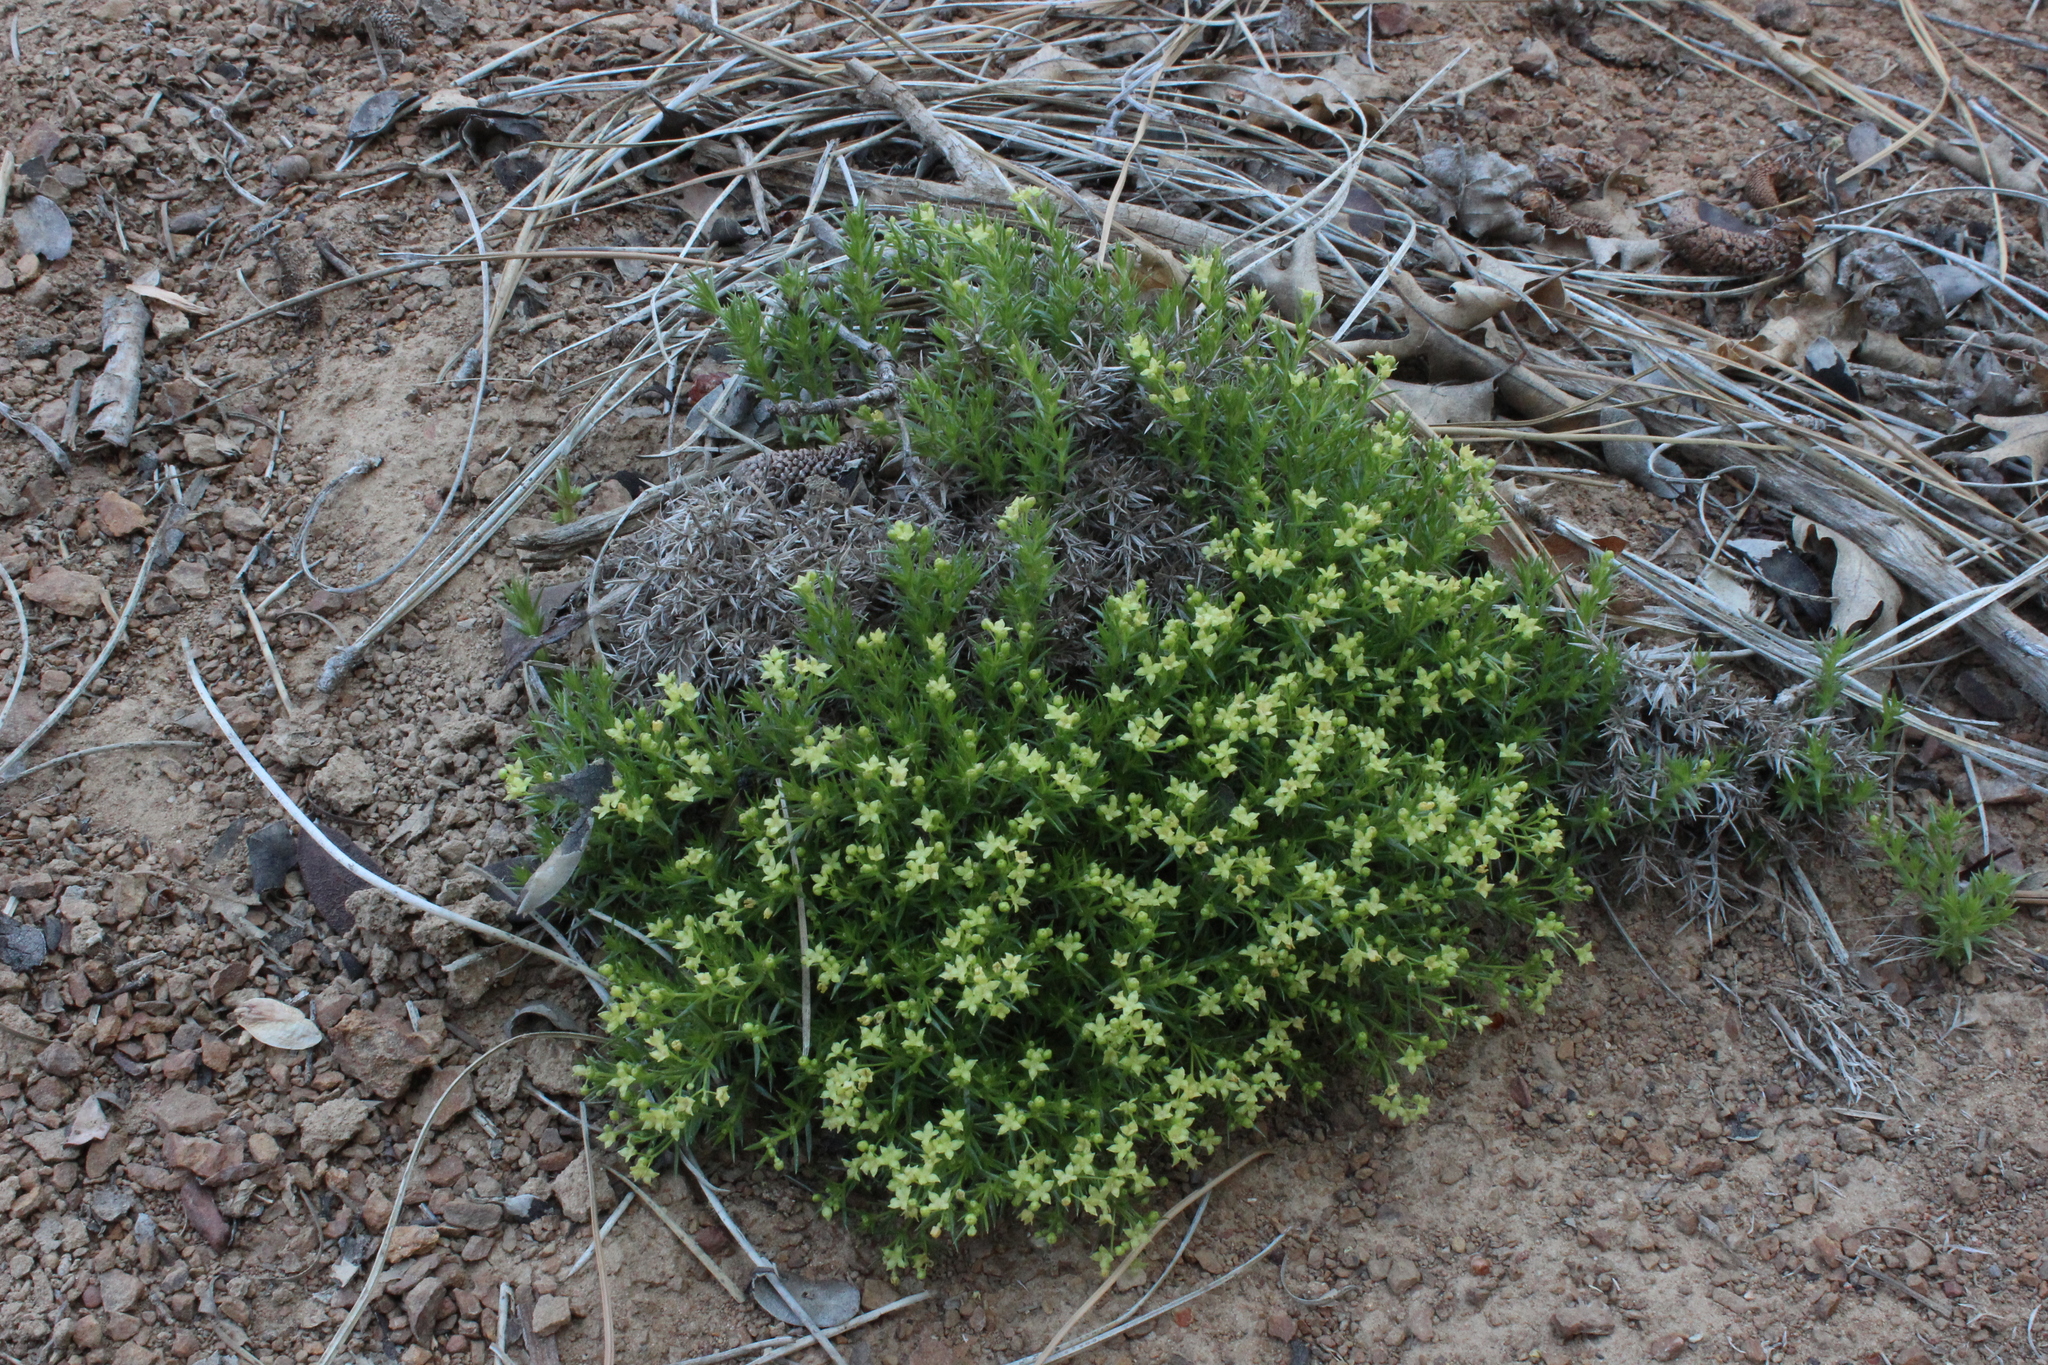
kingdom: Plantae
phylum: Tracheophyta
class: Magnoliopsida
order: Gentianales
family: Rubiaceae
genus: Galium
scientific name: Galium andrewsii
